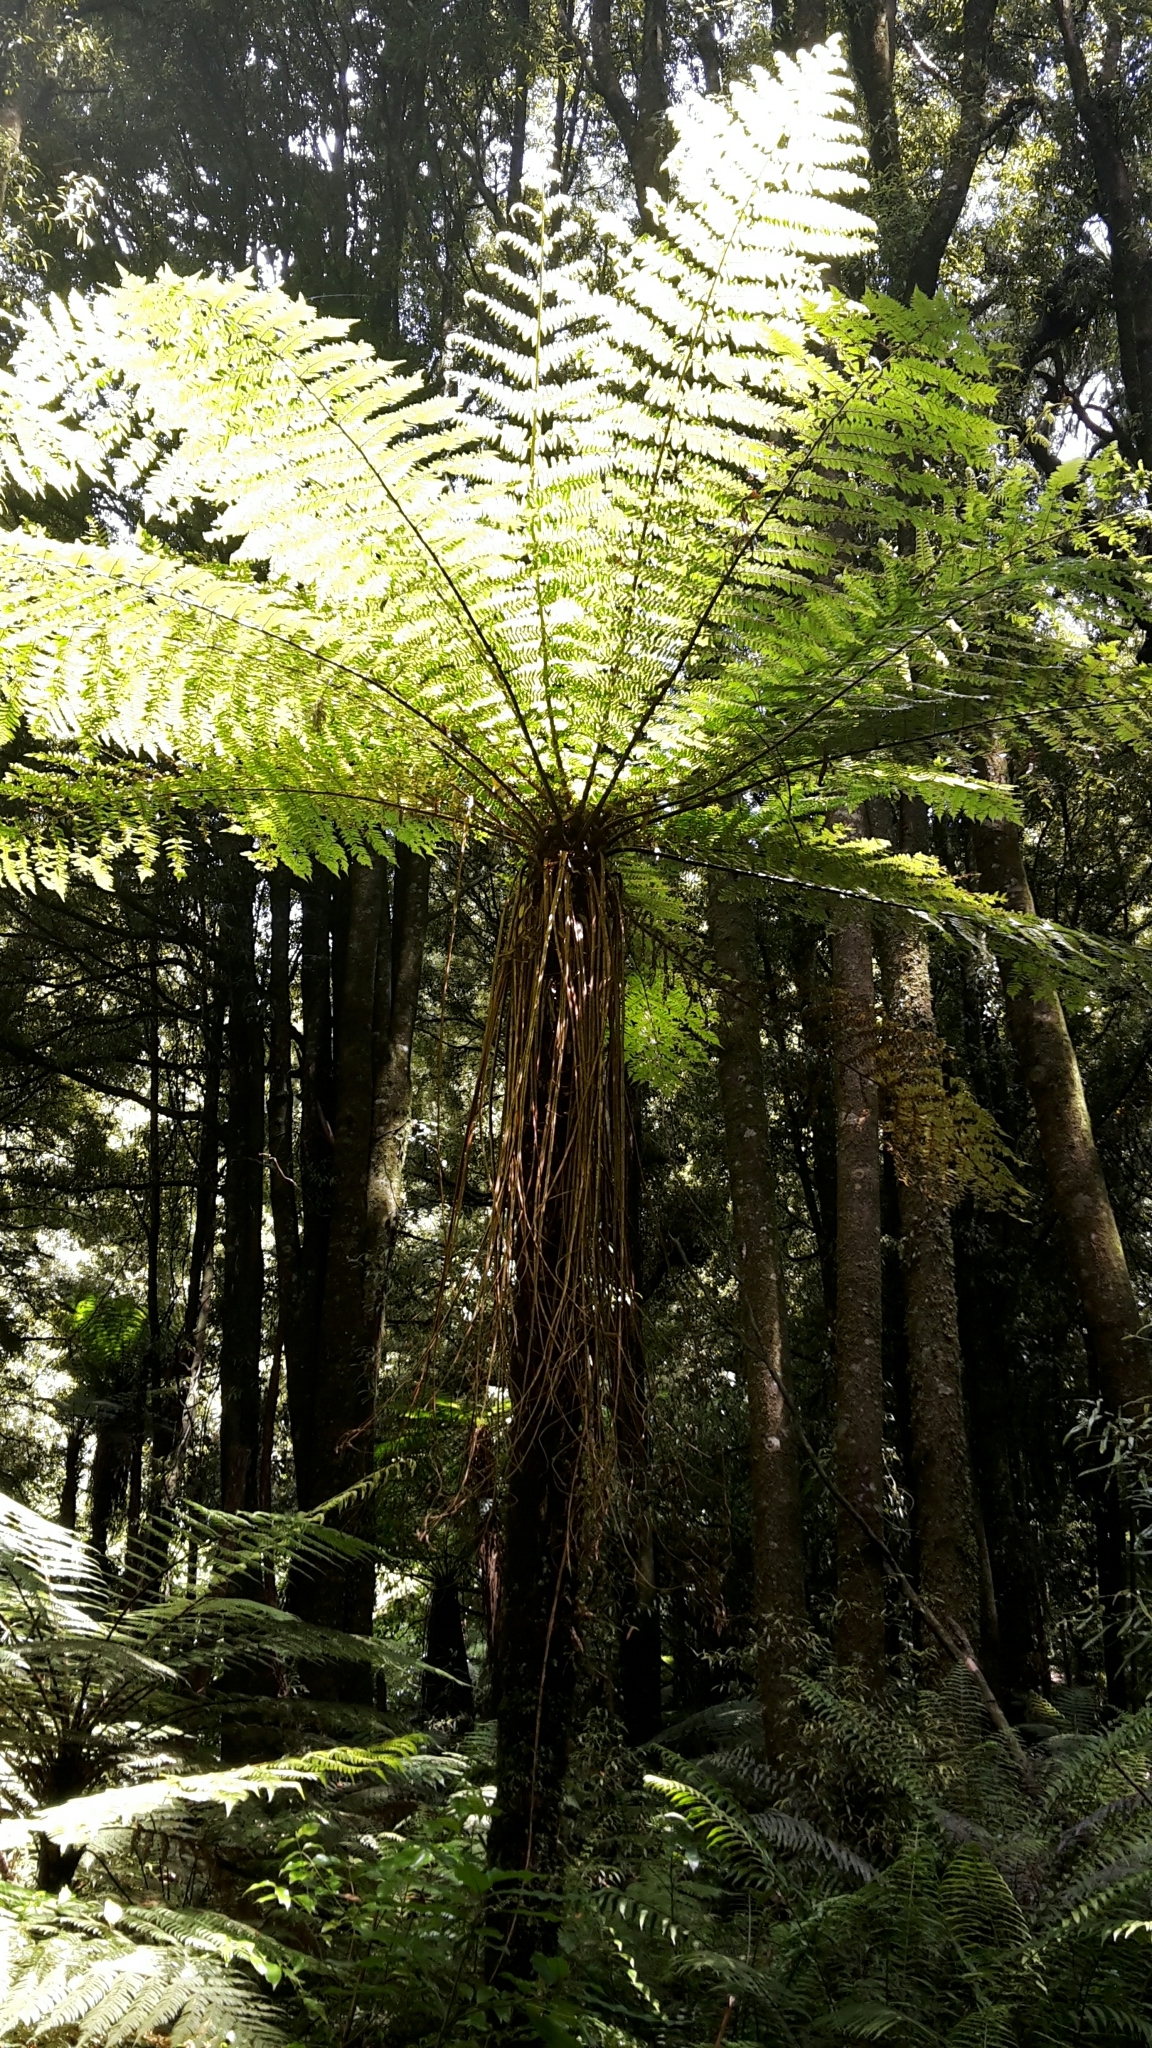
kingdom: Plantae
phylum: Tracheophyta
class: Polypodiopsida
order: Cyatheales
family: Cyatheaceae
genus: Alsophila
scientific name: Alsophila smithii
